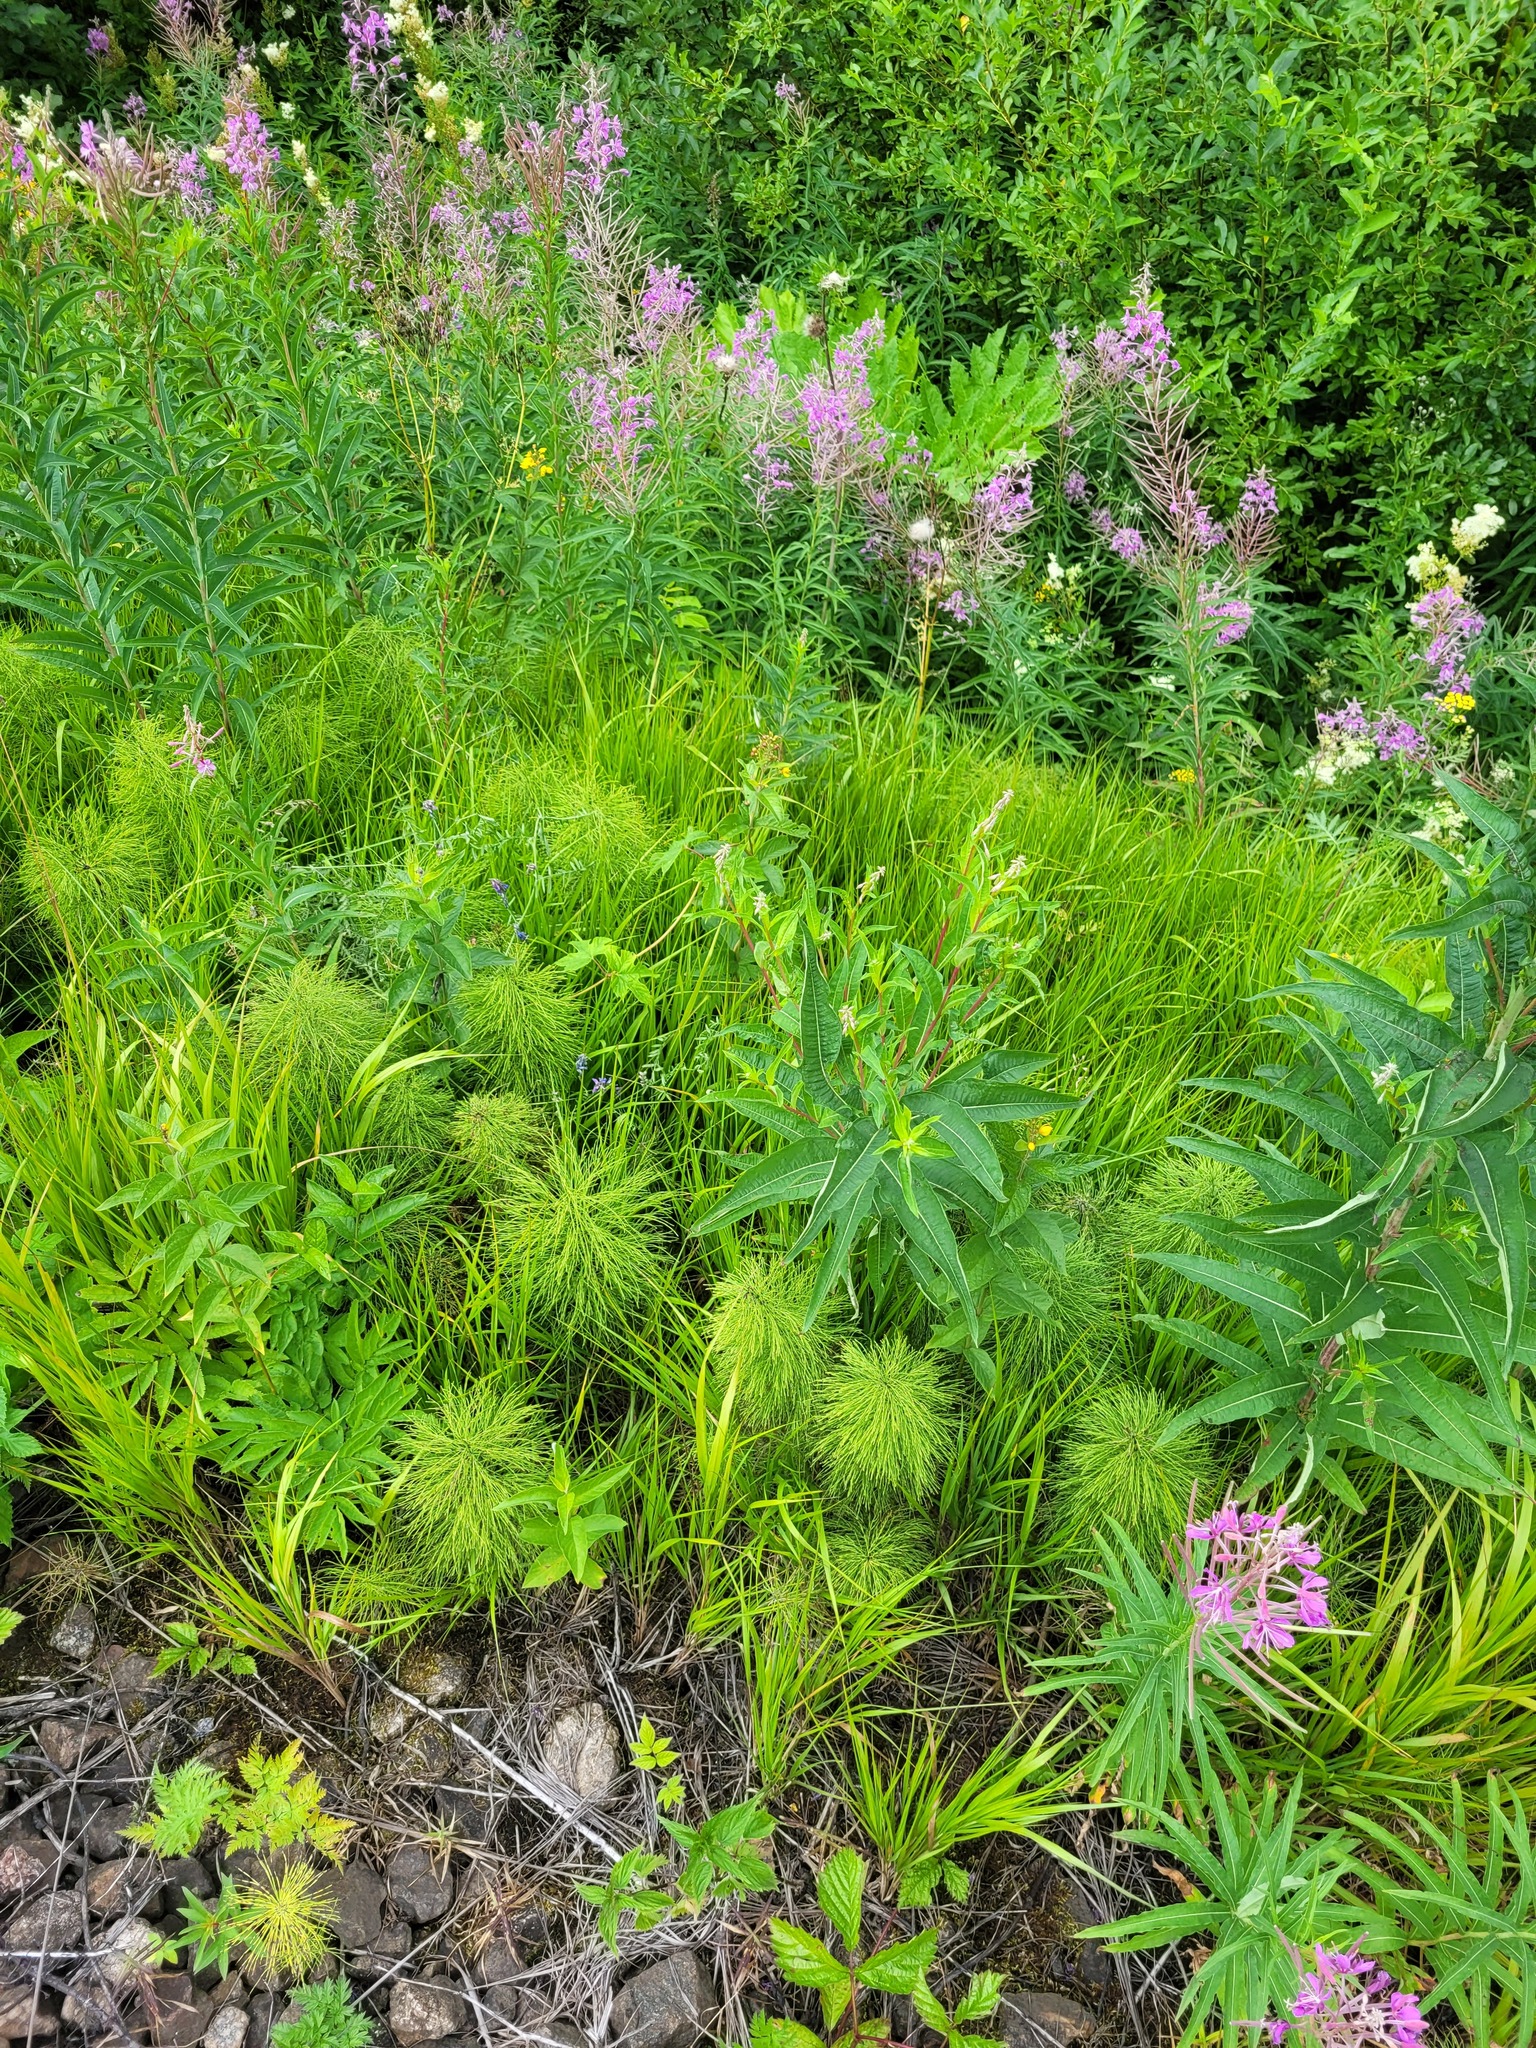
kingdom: Plantae
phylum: Tracheophyta
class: Liliopsida
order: Poales
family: Poaceae
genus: Calamagrostis
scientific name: Calamagrostis canescens
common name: Purple small-reed
